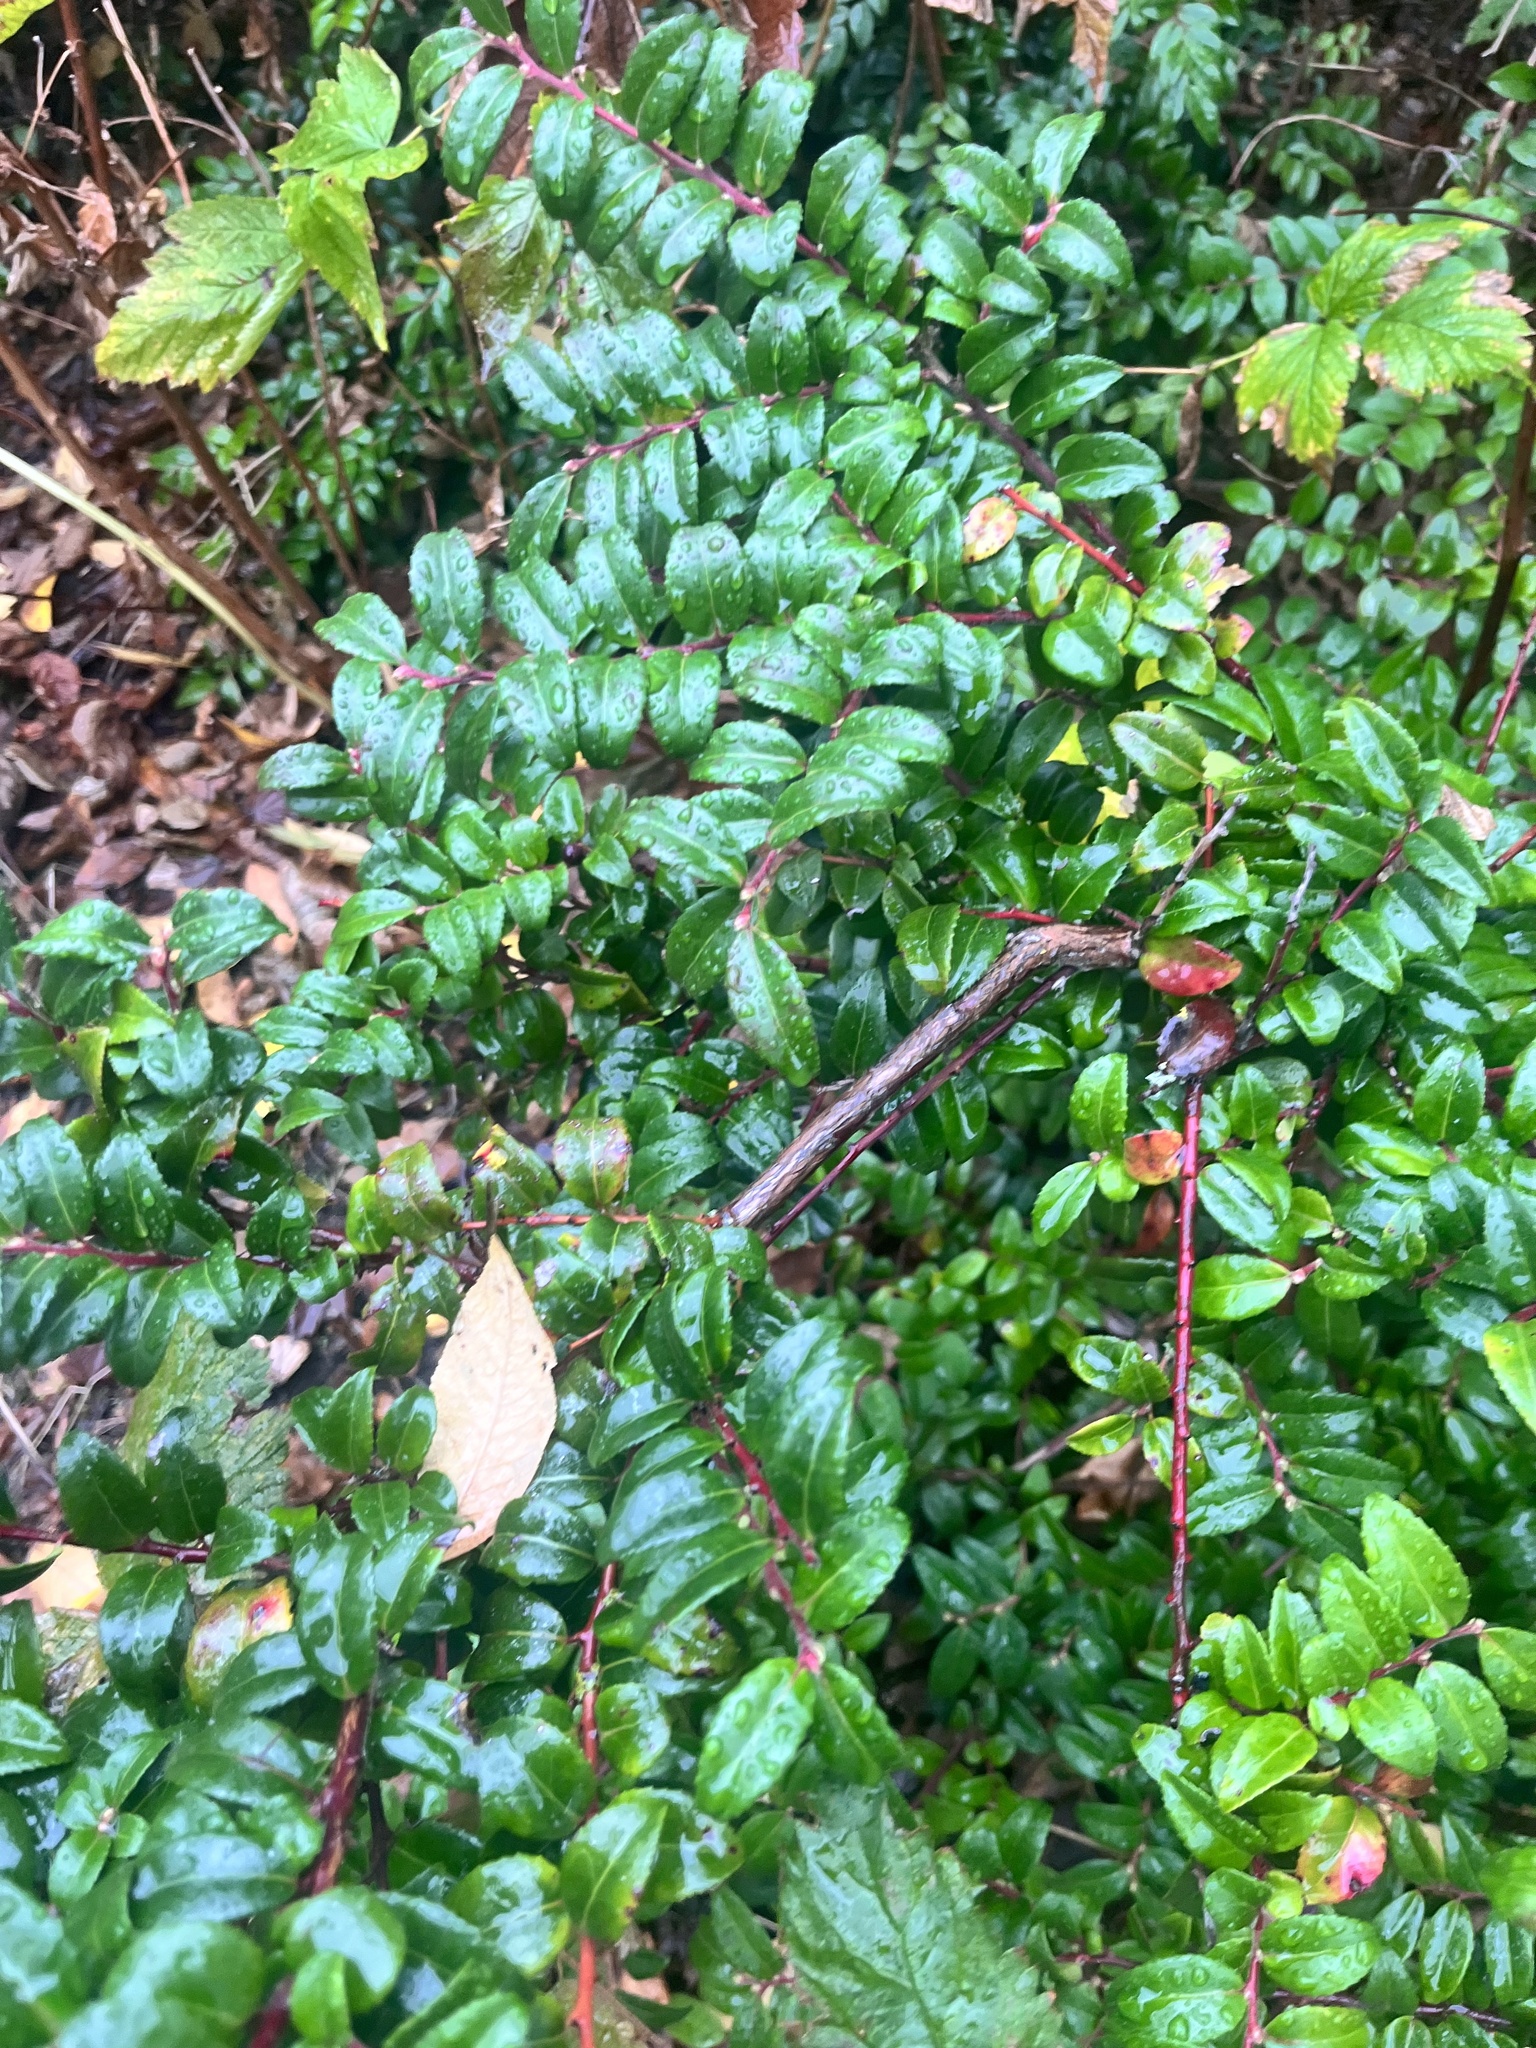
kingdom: Plantae
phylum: Tracheophyta
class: Magnoliopsida
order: Ericales
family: Ericaceae
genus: Vaccinium
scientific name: Vaccinium ovatum
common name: California-huckleberry
